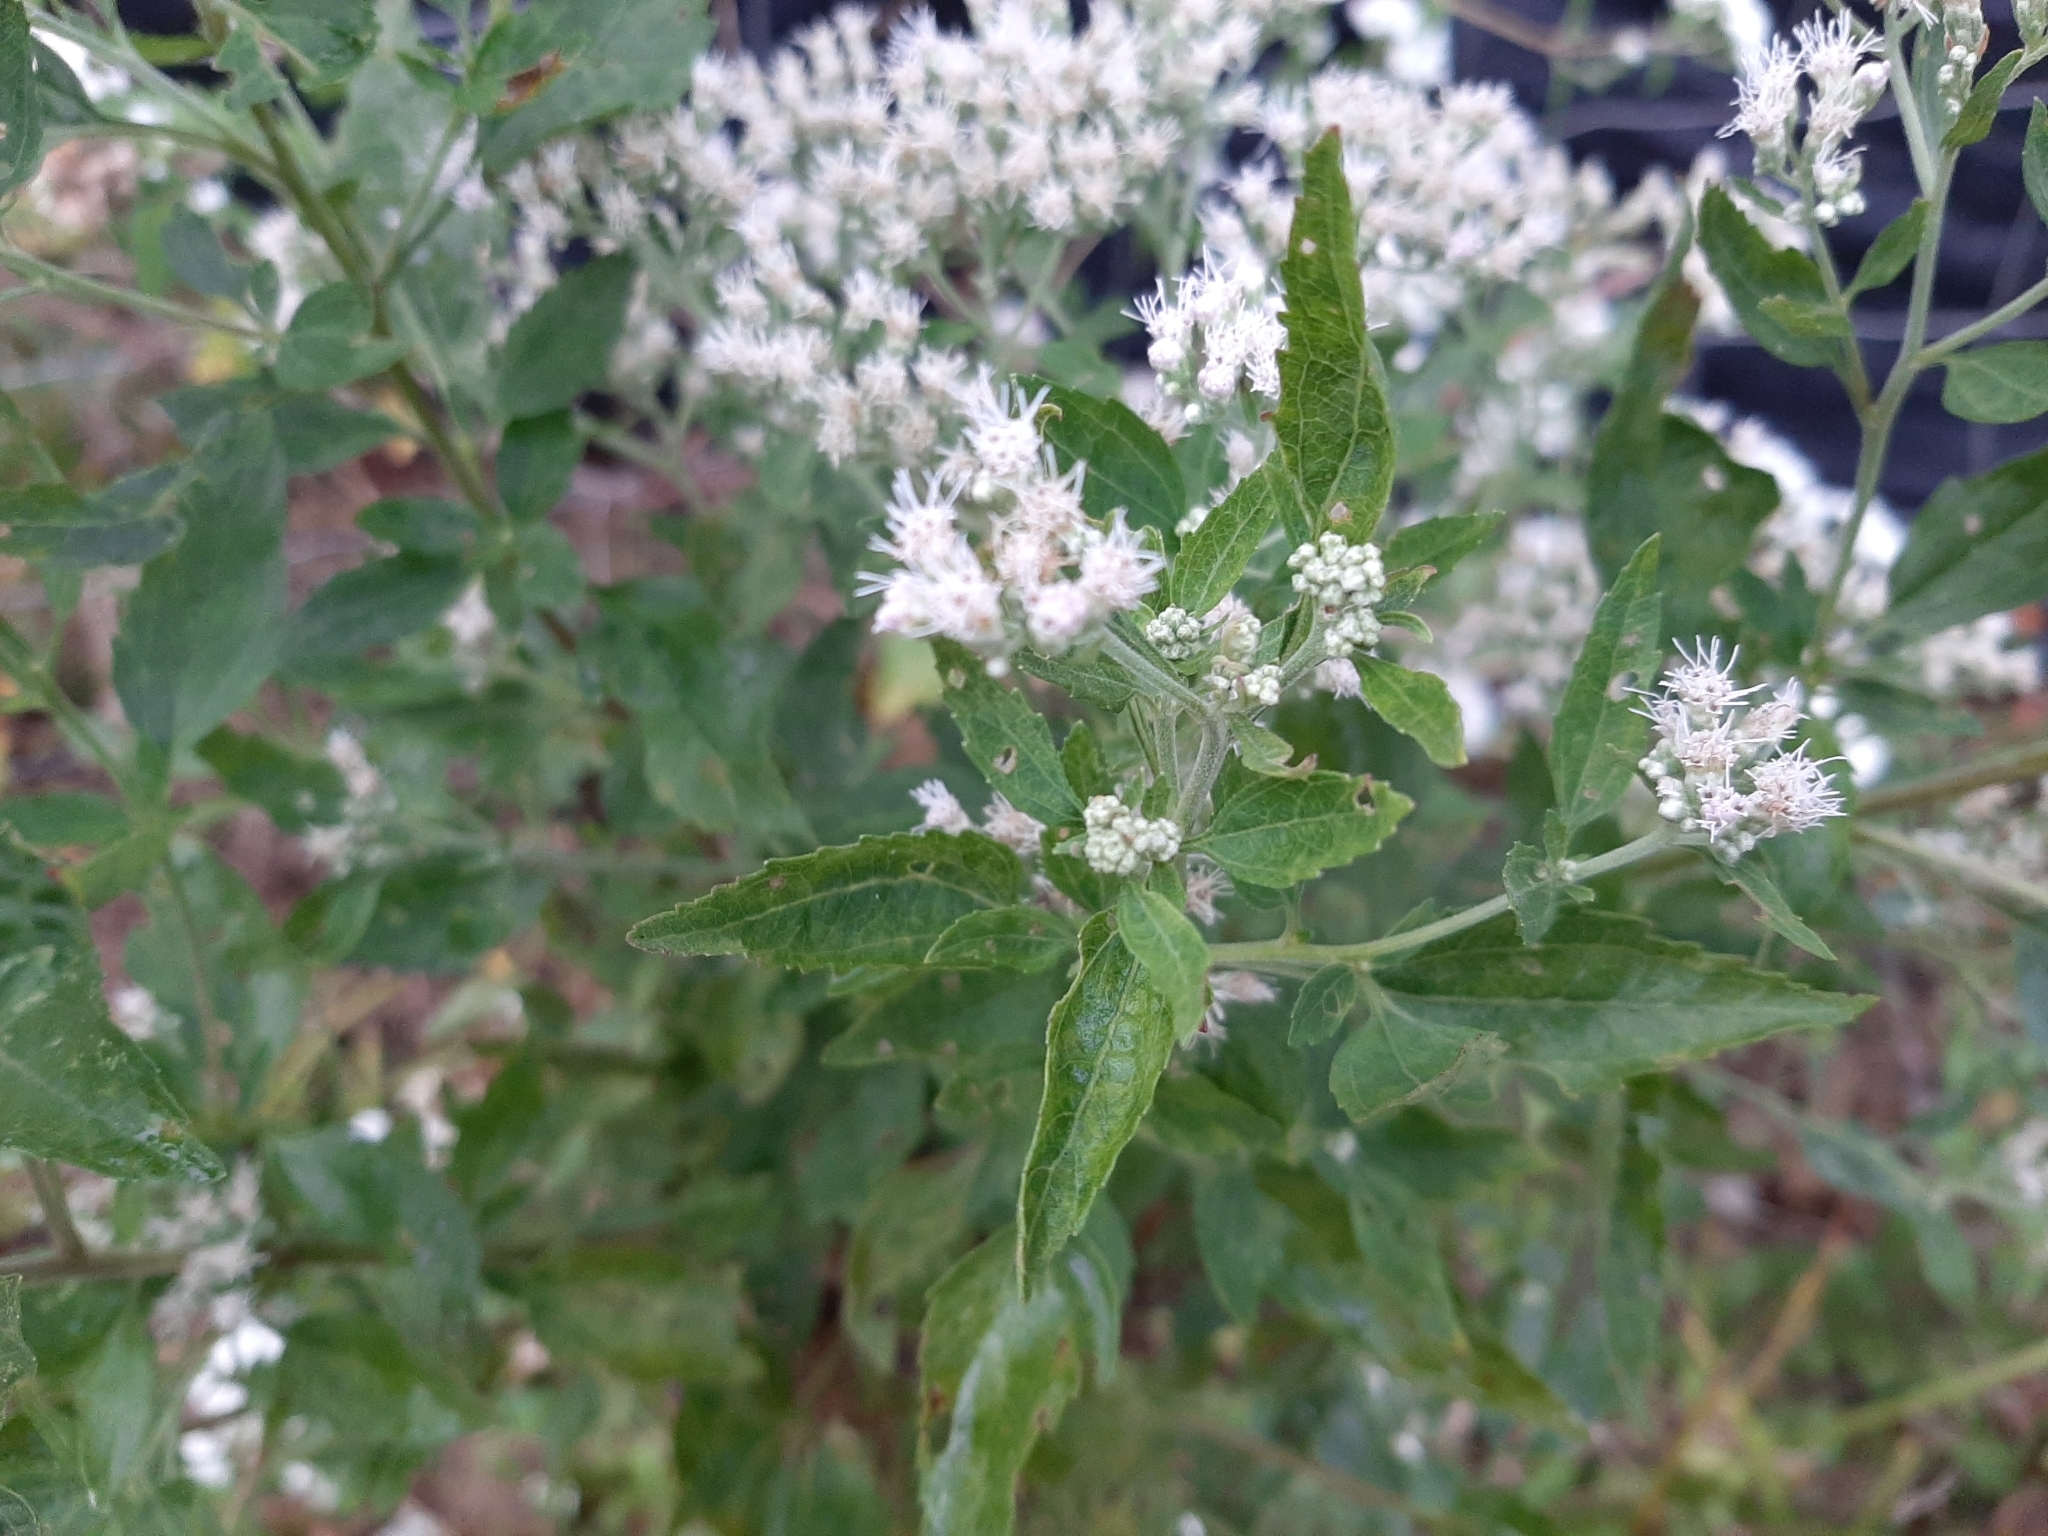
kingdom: Plantae
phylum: Tracheophyta
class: Magnoliopsida
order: Asterales
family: Asteraceae
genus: Eupatorium
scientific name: Eupatorium serotinum
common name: Late boneset
